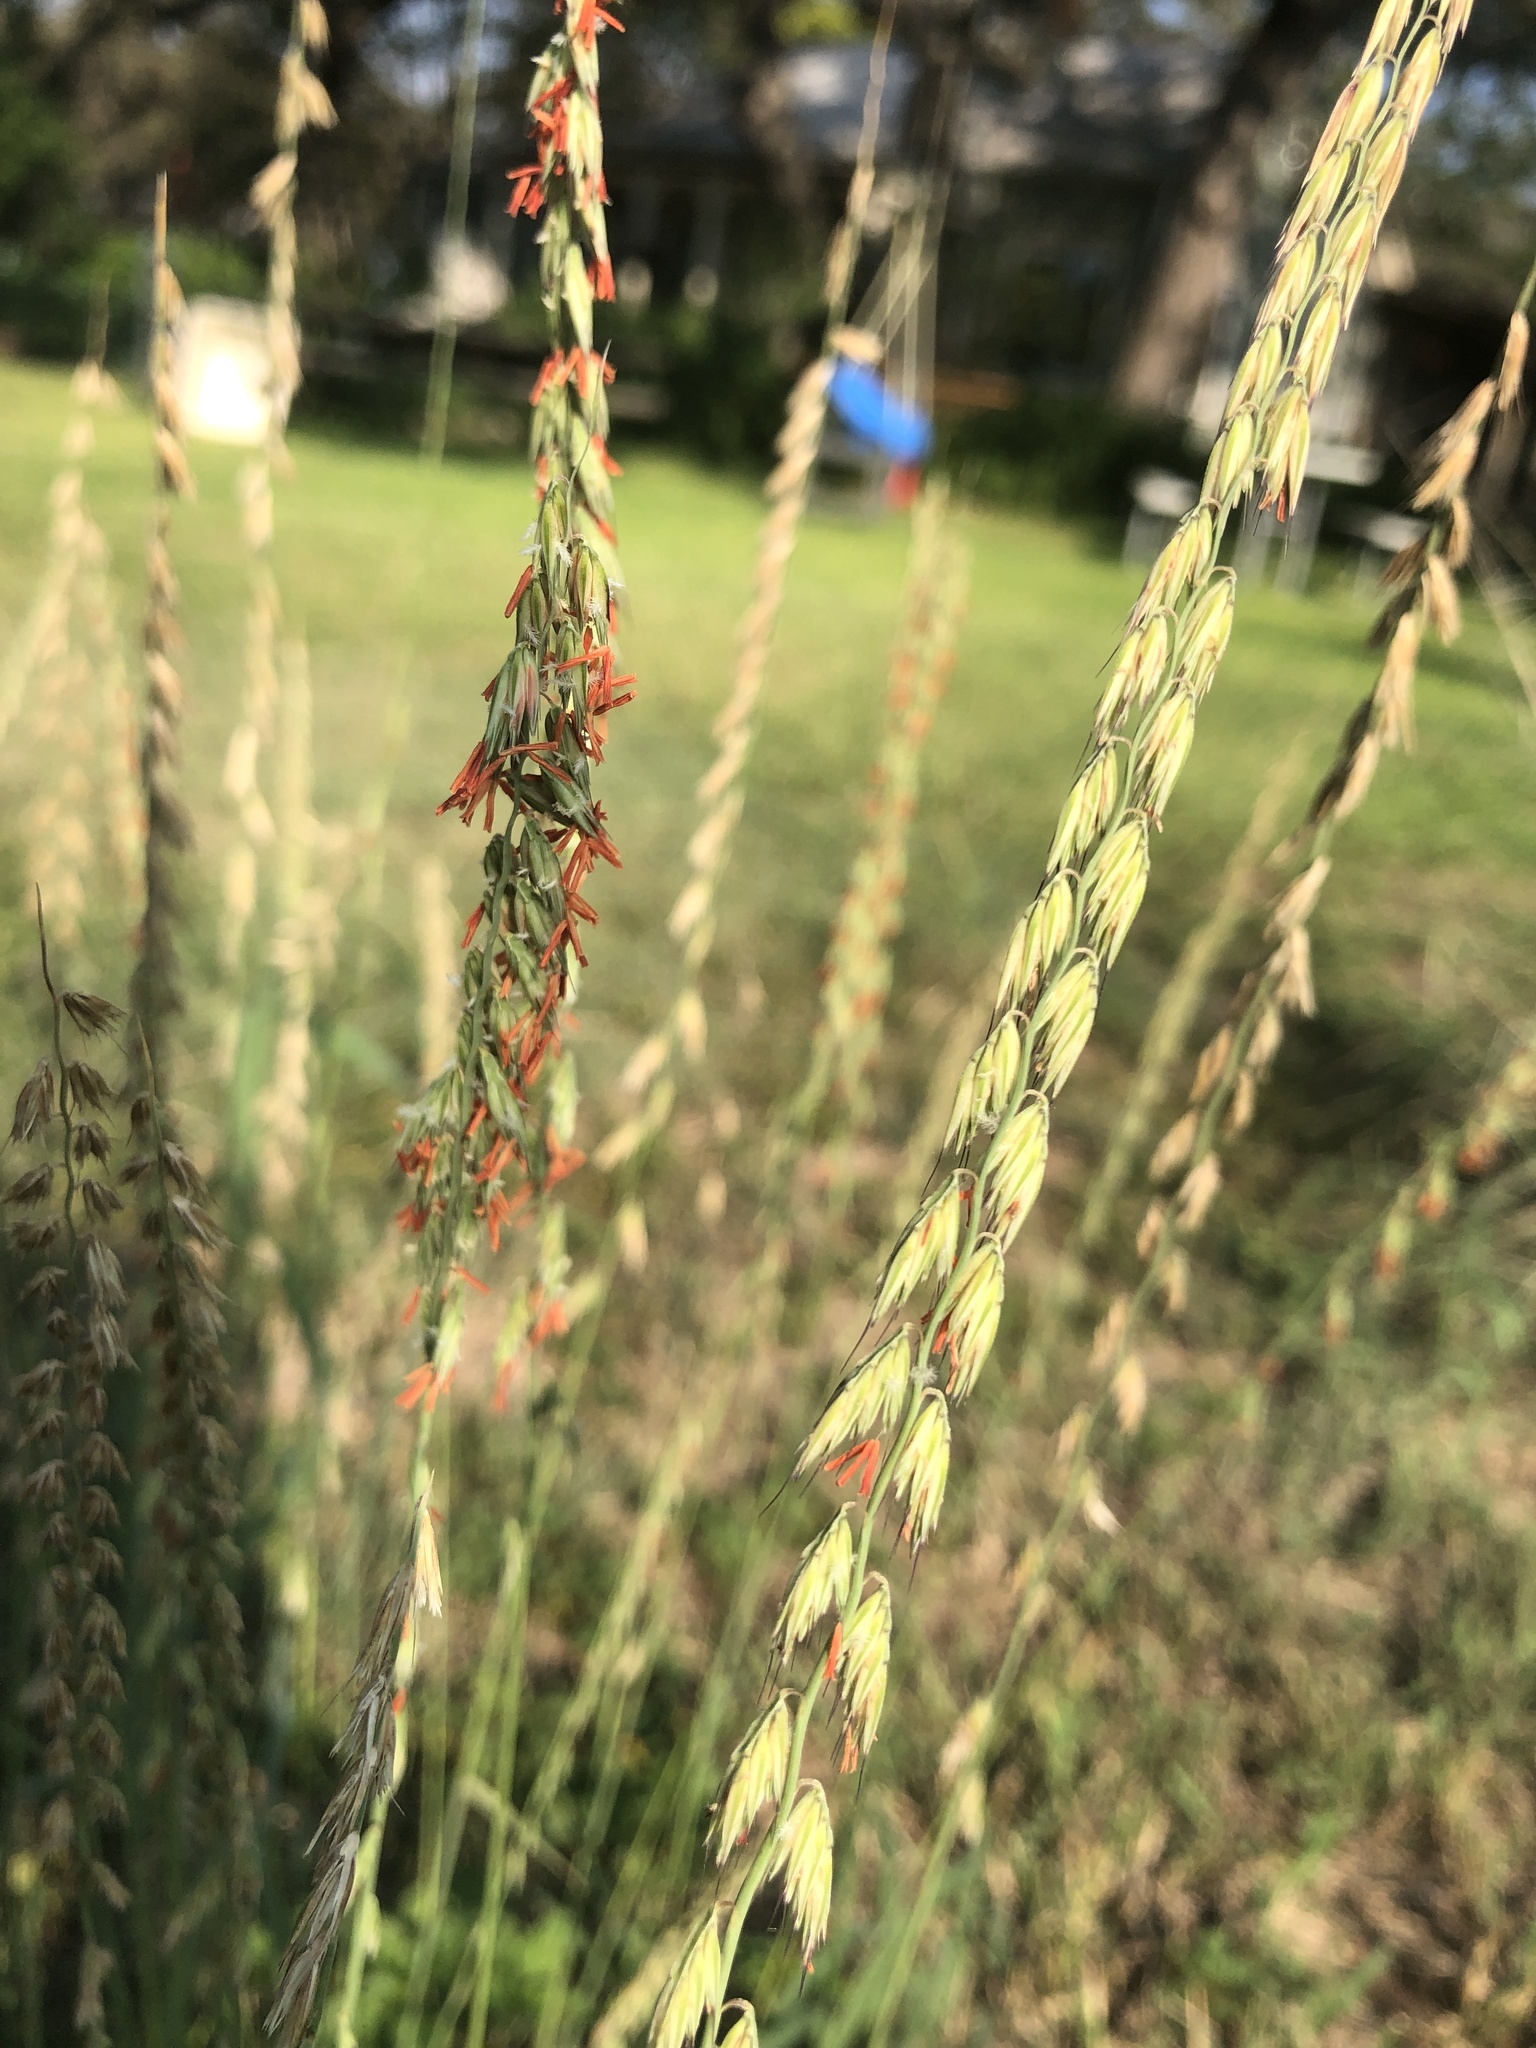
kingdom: Plantae
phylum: Tracheophyta
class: Liliopsida
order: Poales
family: Poaceae
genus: Bouteloua
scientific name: Bouteloua curtipendula
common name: Side-oats grama
